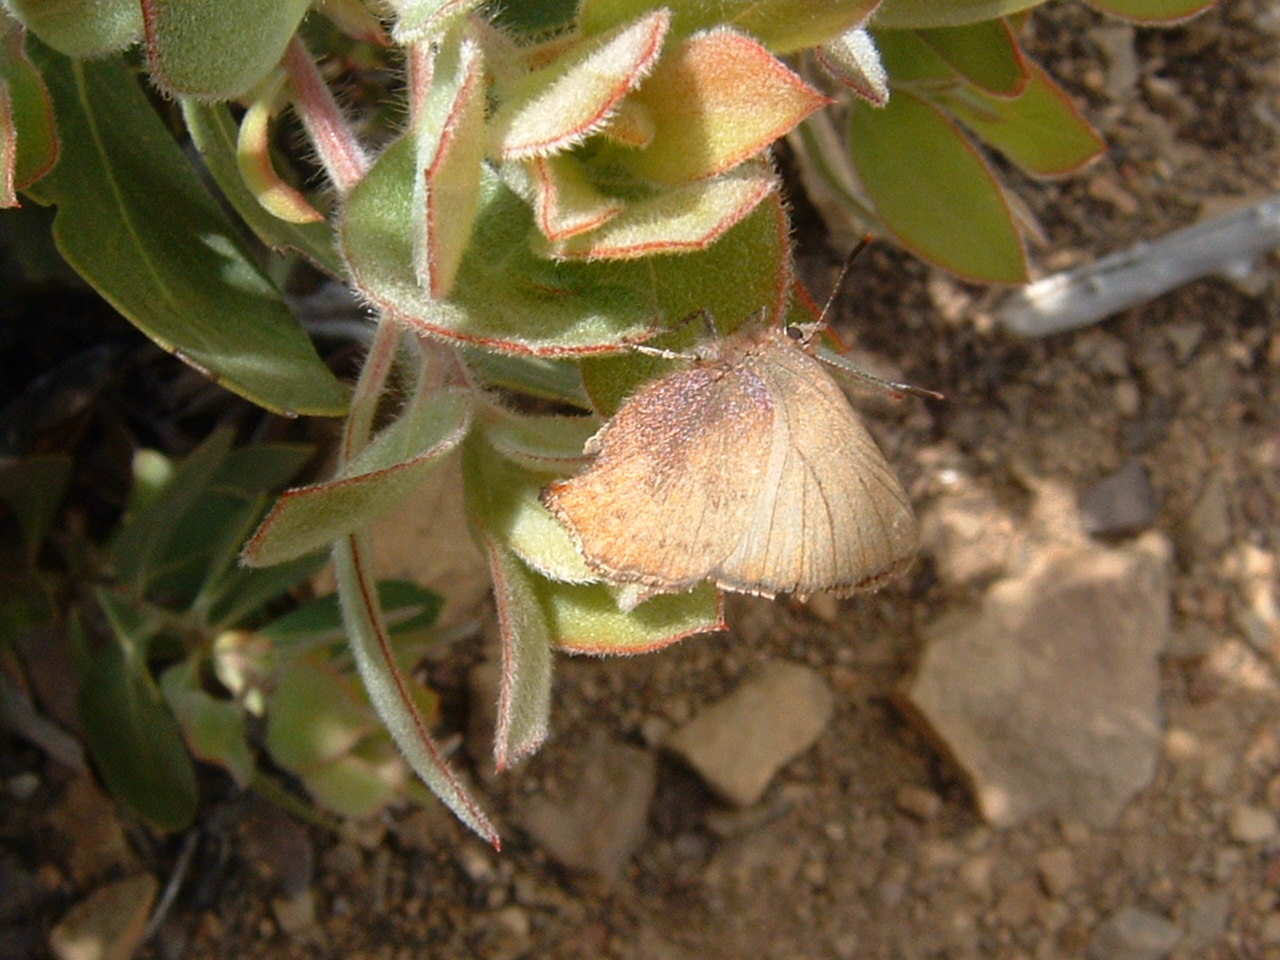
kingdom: Animalia
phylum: Arthropoda
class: Insecta
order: Lepidoptera
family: Lycaenidae
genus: Thecla
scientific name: Thecla iroides
